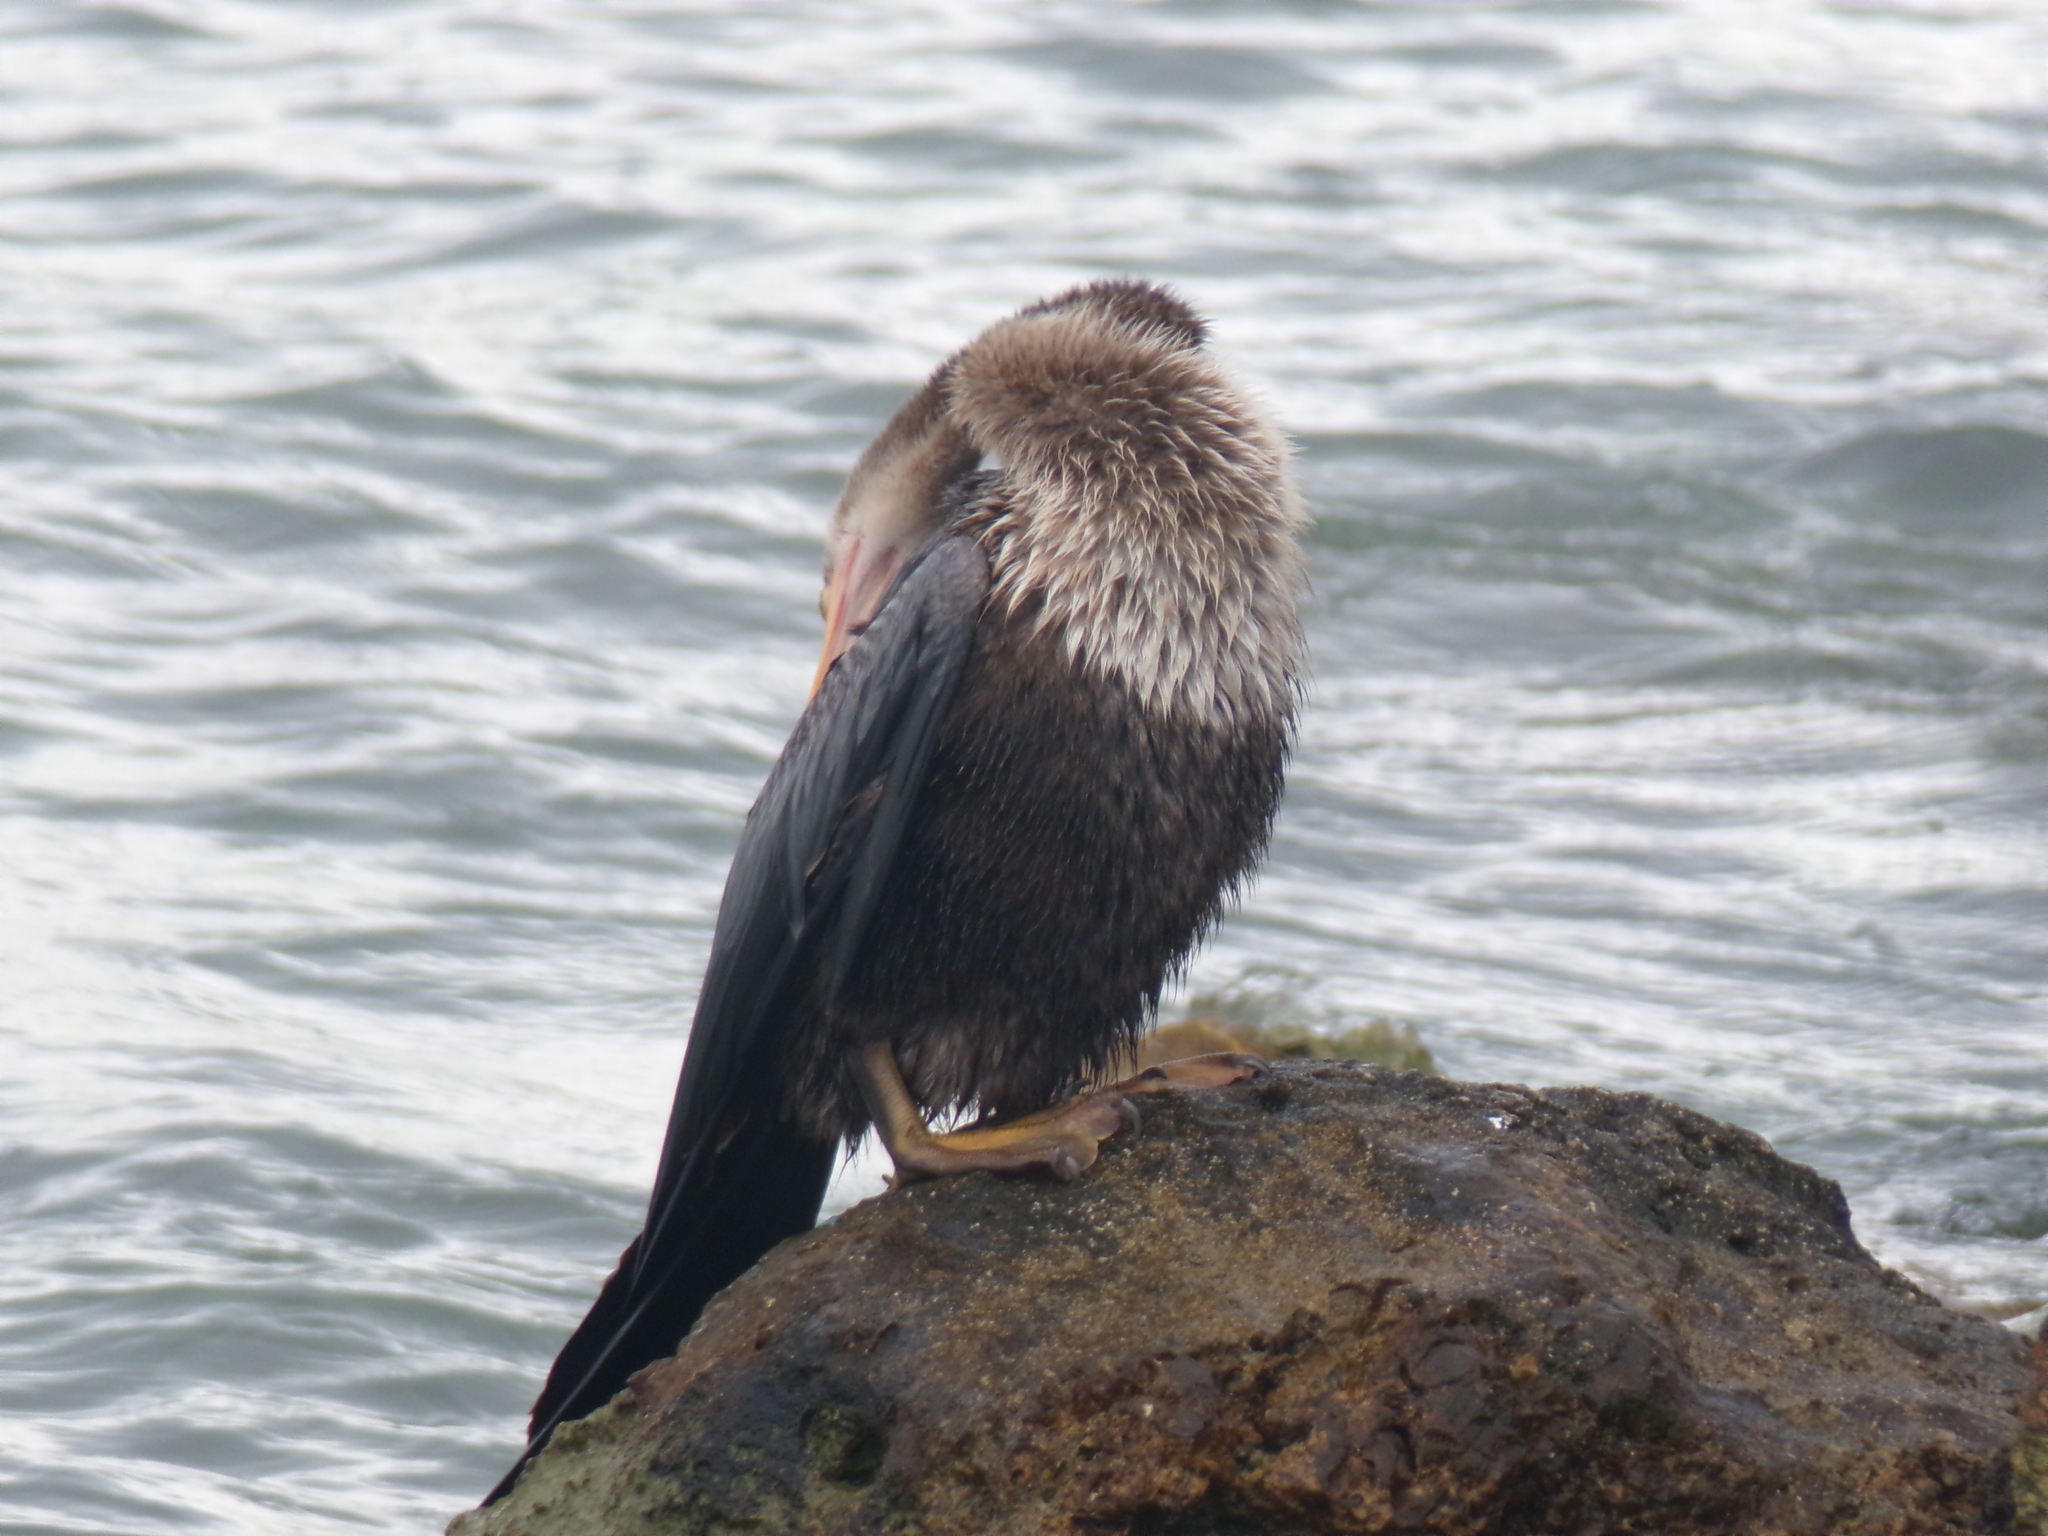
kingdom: Animalia
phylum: Chordata
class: Aves
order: Suliformes
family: Anhingidae
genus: Anhinga
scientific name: Anhinga anhinga
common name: Anhinga
